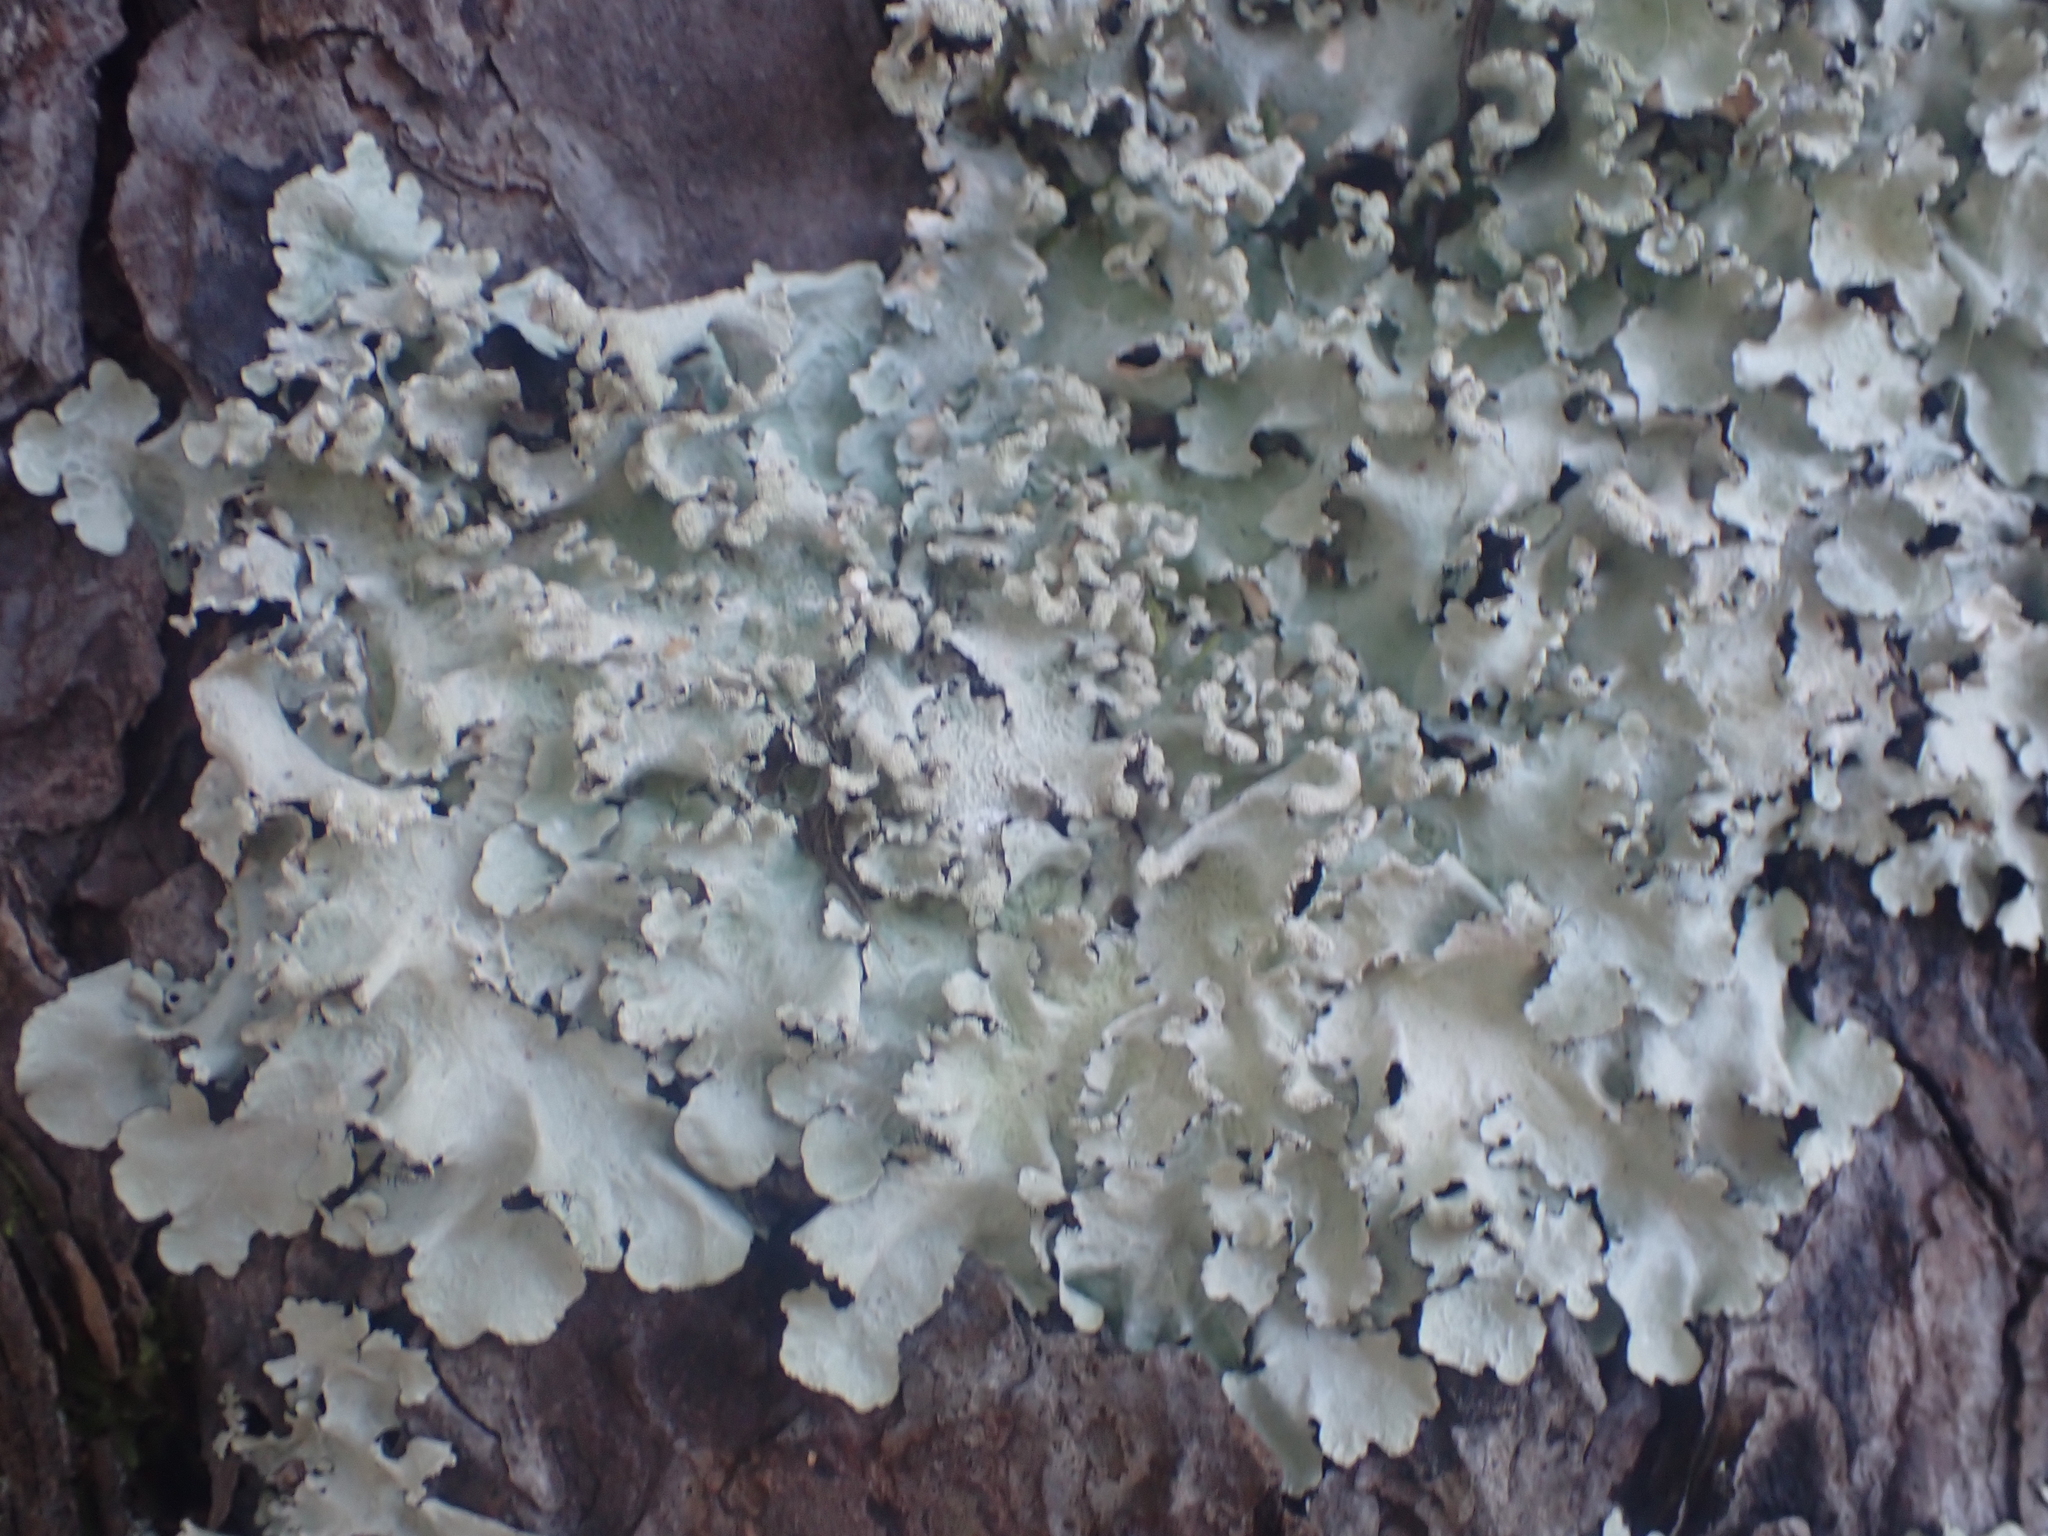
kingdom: Fungi
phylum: Ascomycota
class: Lecanoromycetes
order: Lecanorales
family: Parmeliaceae
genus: Parmotrema
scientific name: Parmotrema perlatum
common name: Black stone flower
